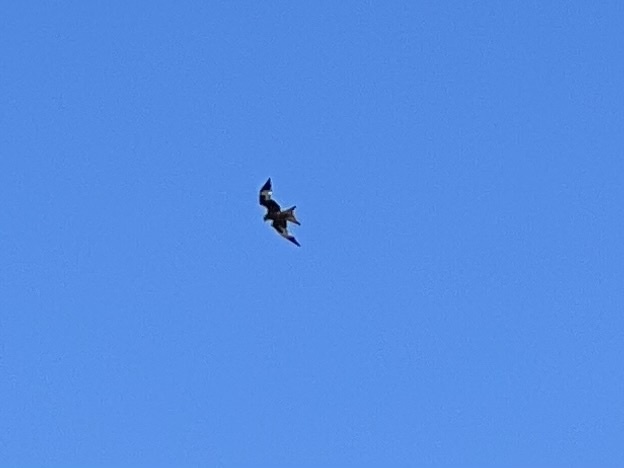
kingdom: Animalia
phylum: Chordata
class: Aves
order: Accipitriformes
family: Accipitridae
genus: Milvus
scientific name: Milvus milvus
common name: Red kite
